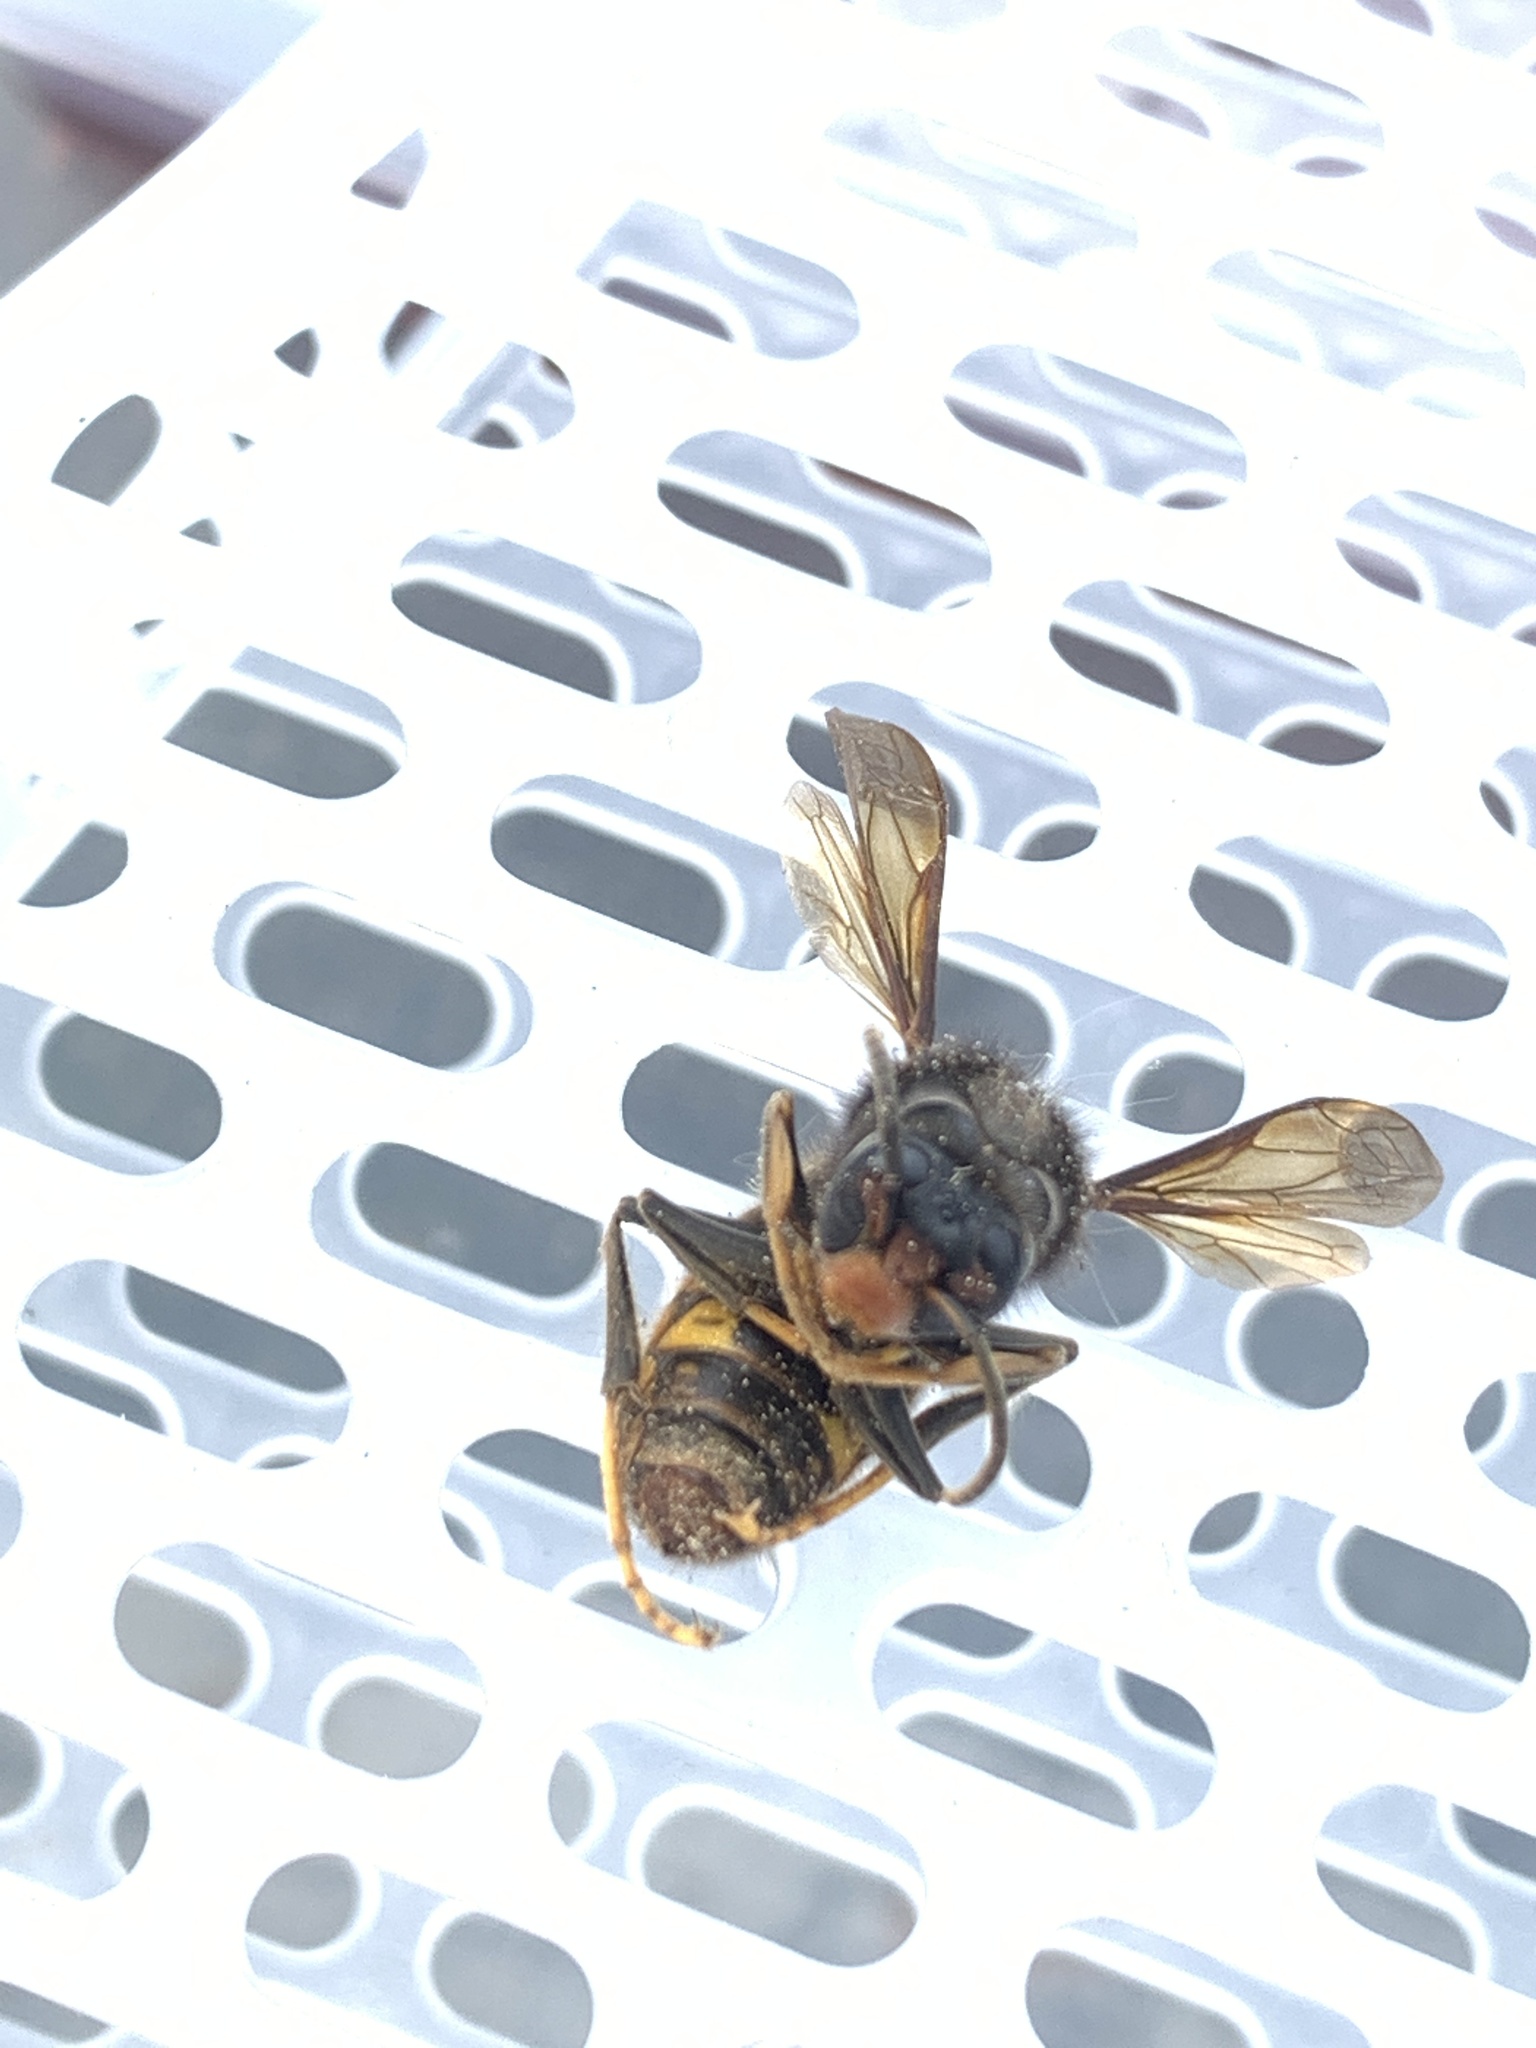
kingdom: Animalia
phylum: Arthropoda
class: Insecta
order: Hymenoptera
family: Vespidae
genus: Vespa
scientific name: Vespa velutina
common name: Asian hornet
